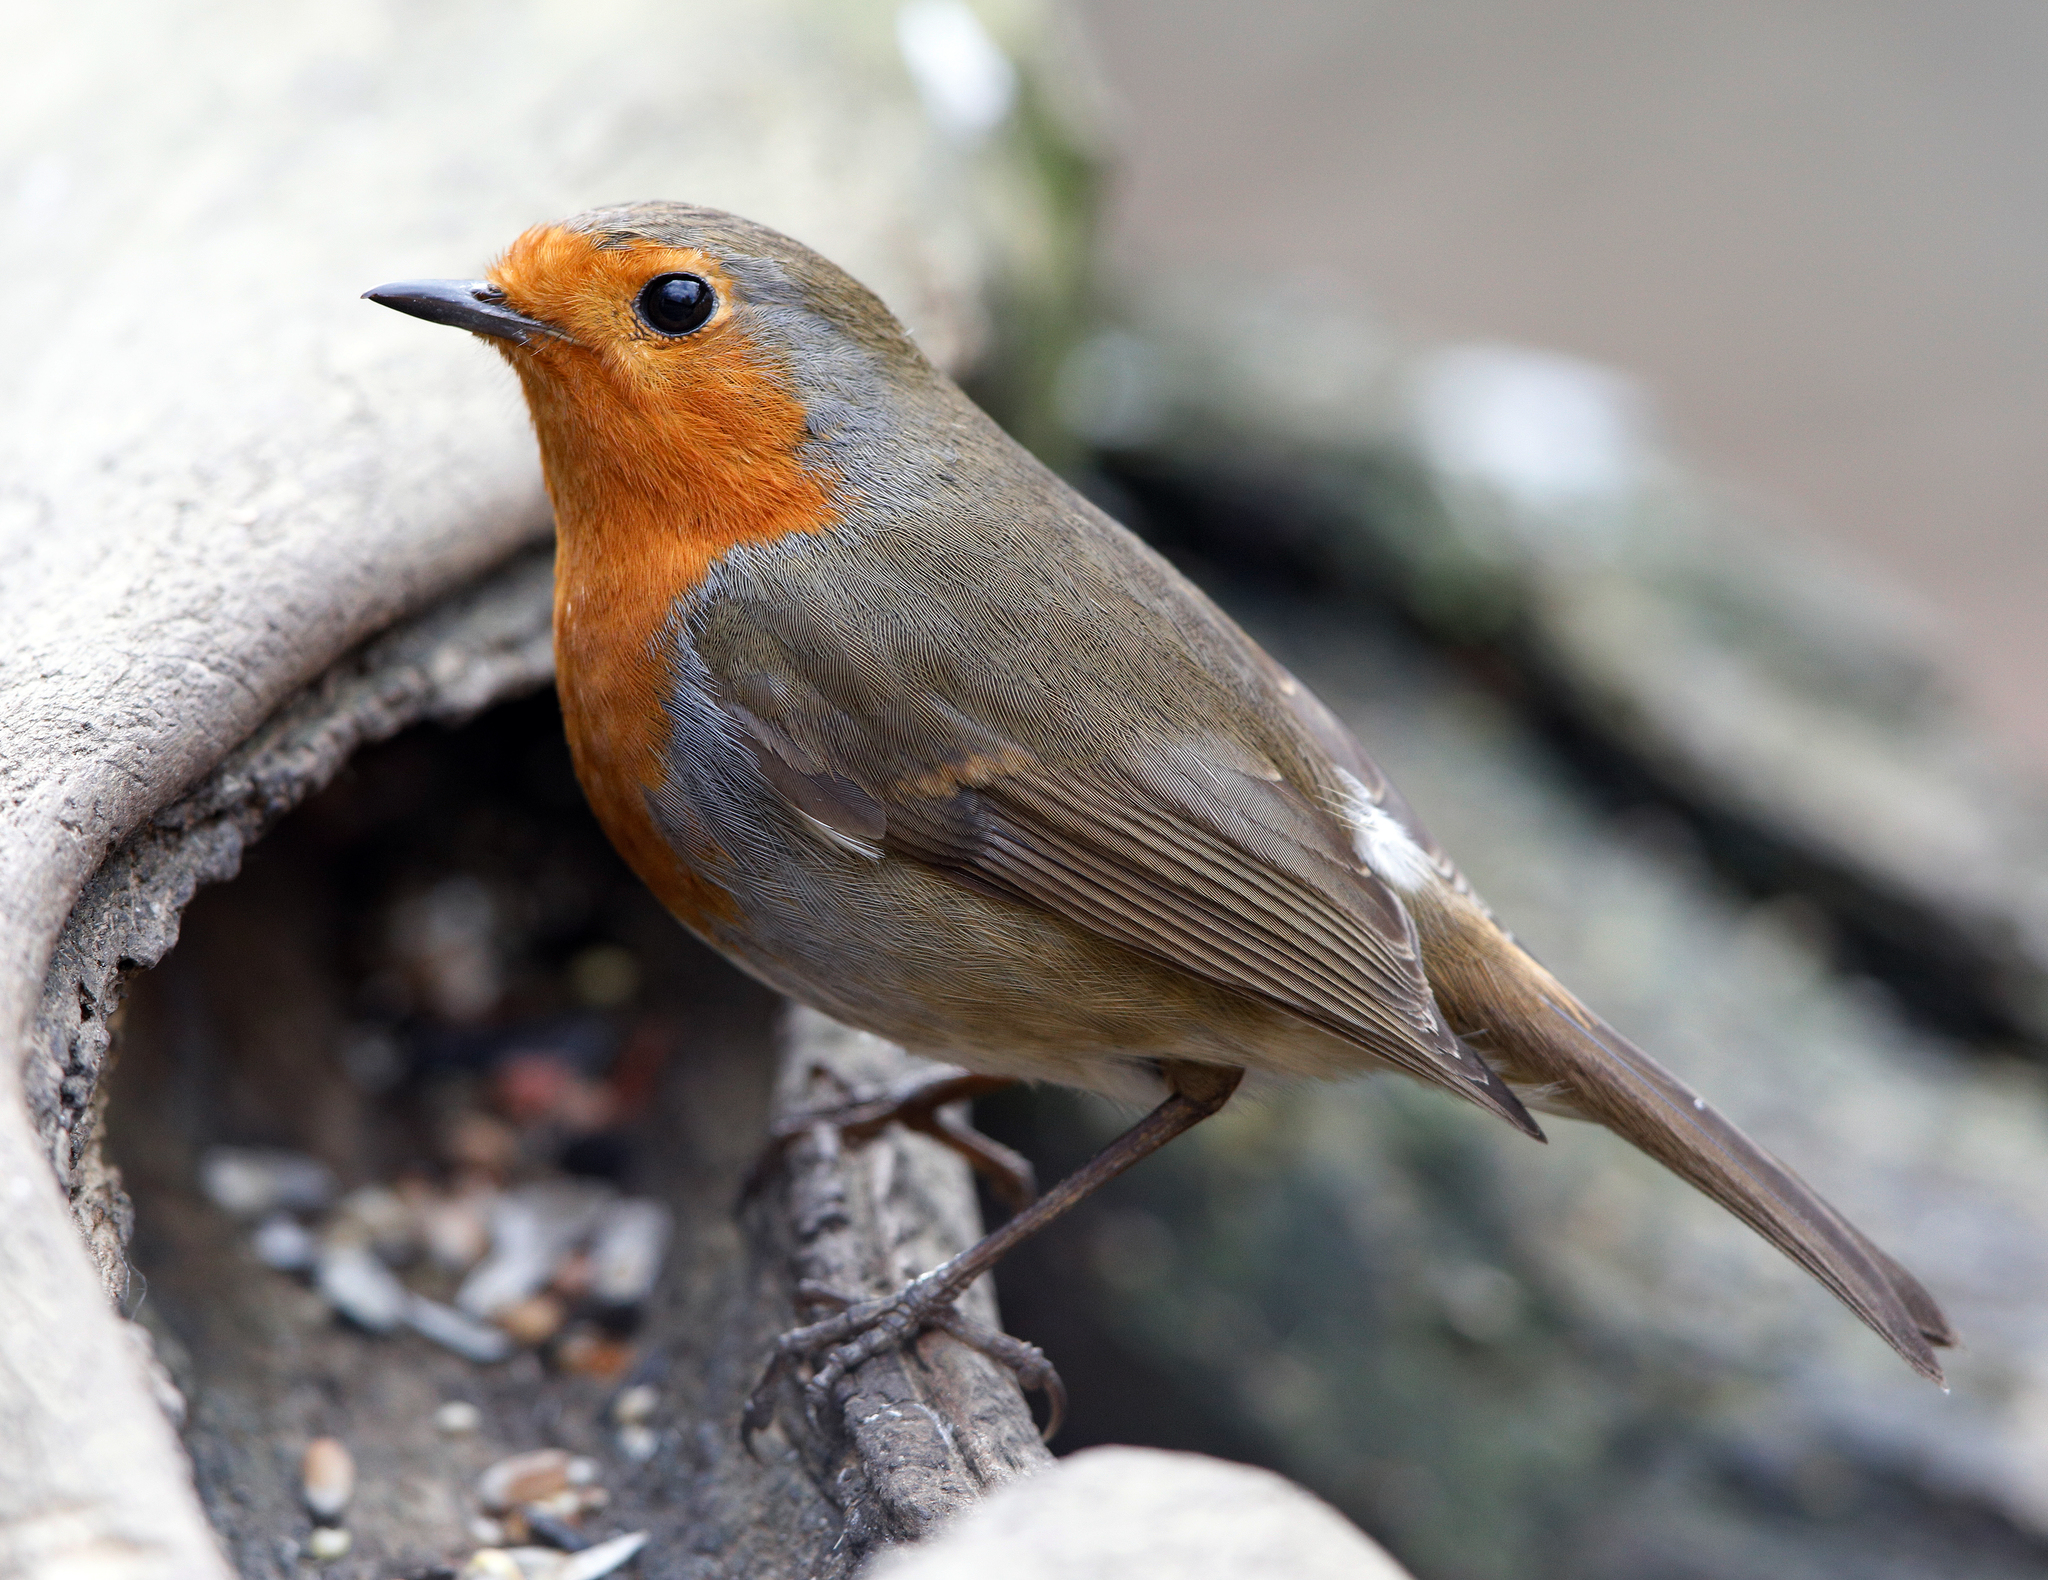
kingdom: Animalia
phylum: Chordata
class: Aves
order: Passeriformes
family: Muscicapidae
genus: Erithacus
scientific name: Erithacus rubecula
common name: European robin
